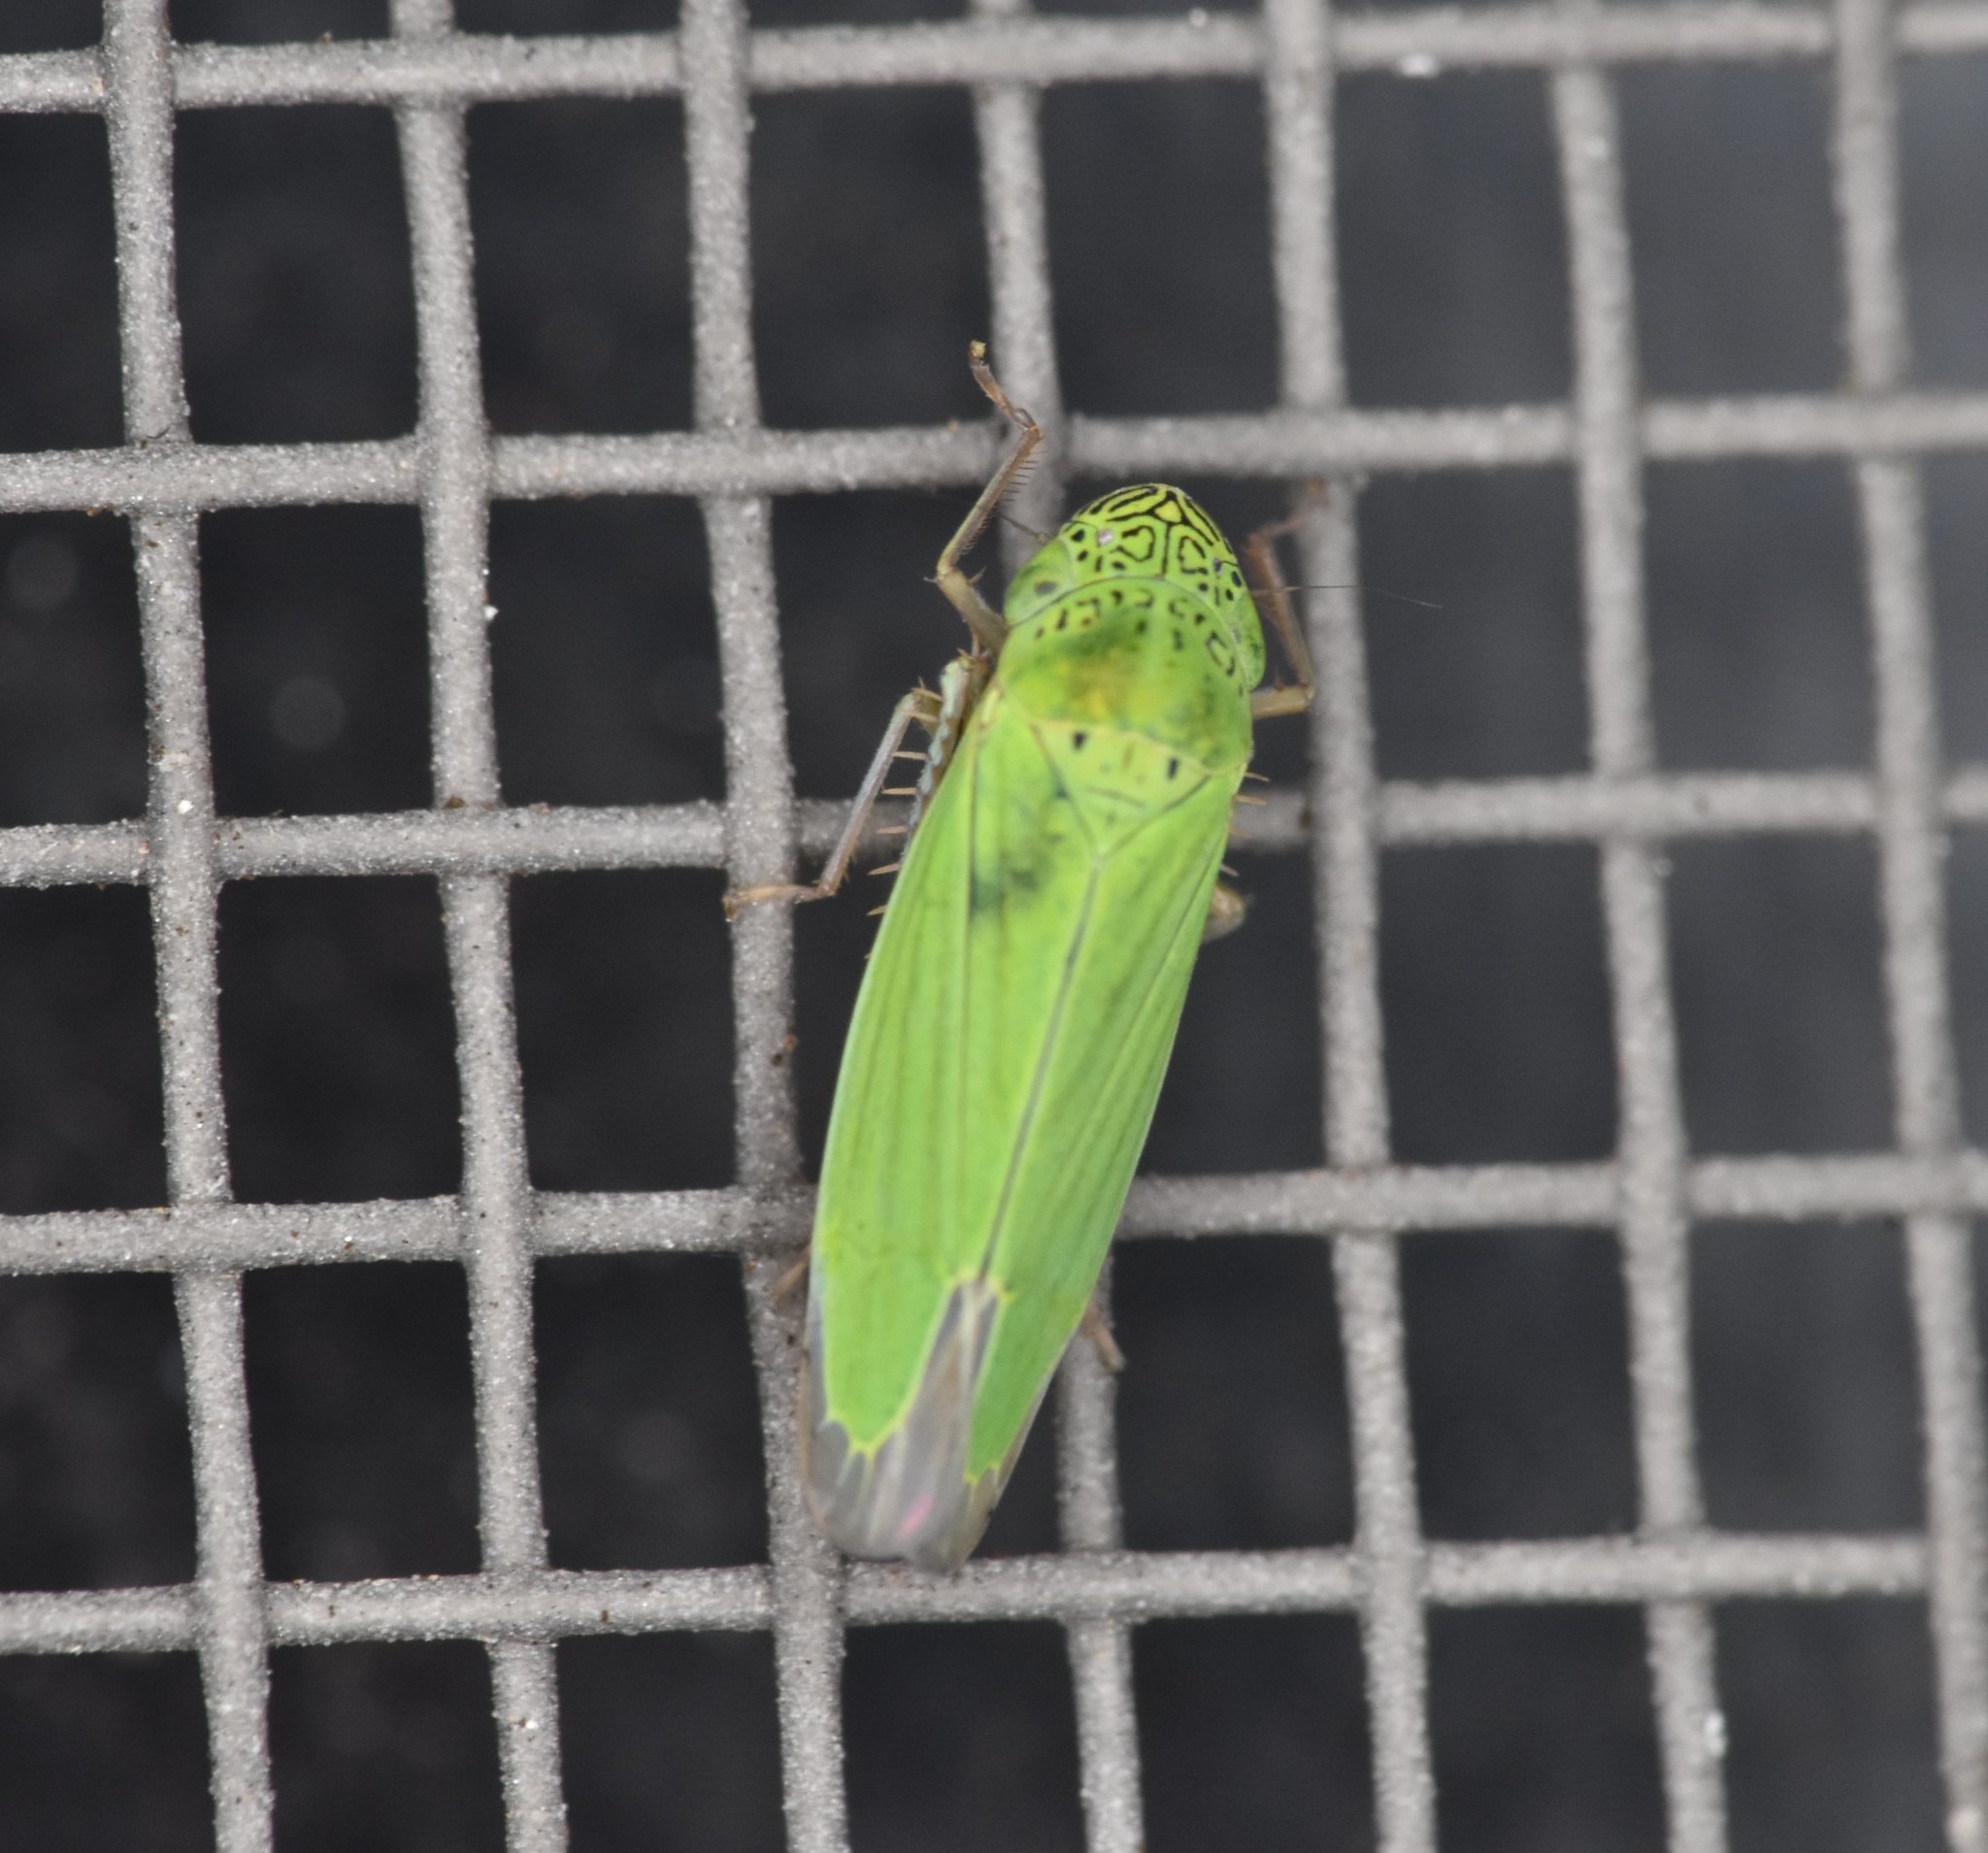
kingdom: Animalia
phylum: Arthropoda
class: Insecta
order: Hemiptera
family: Cicadellidae
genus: Hortensia
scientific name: Hortensia similis
